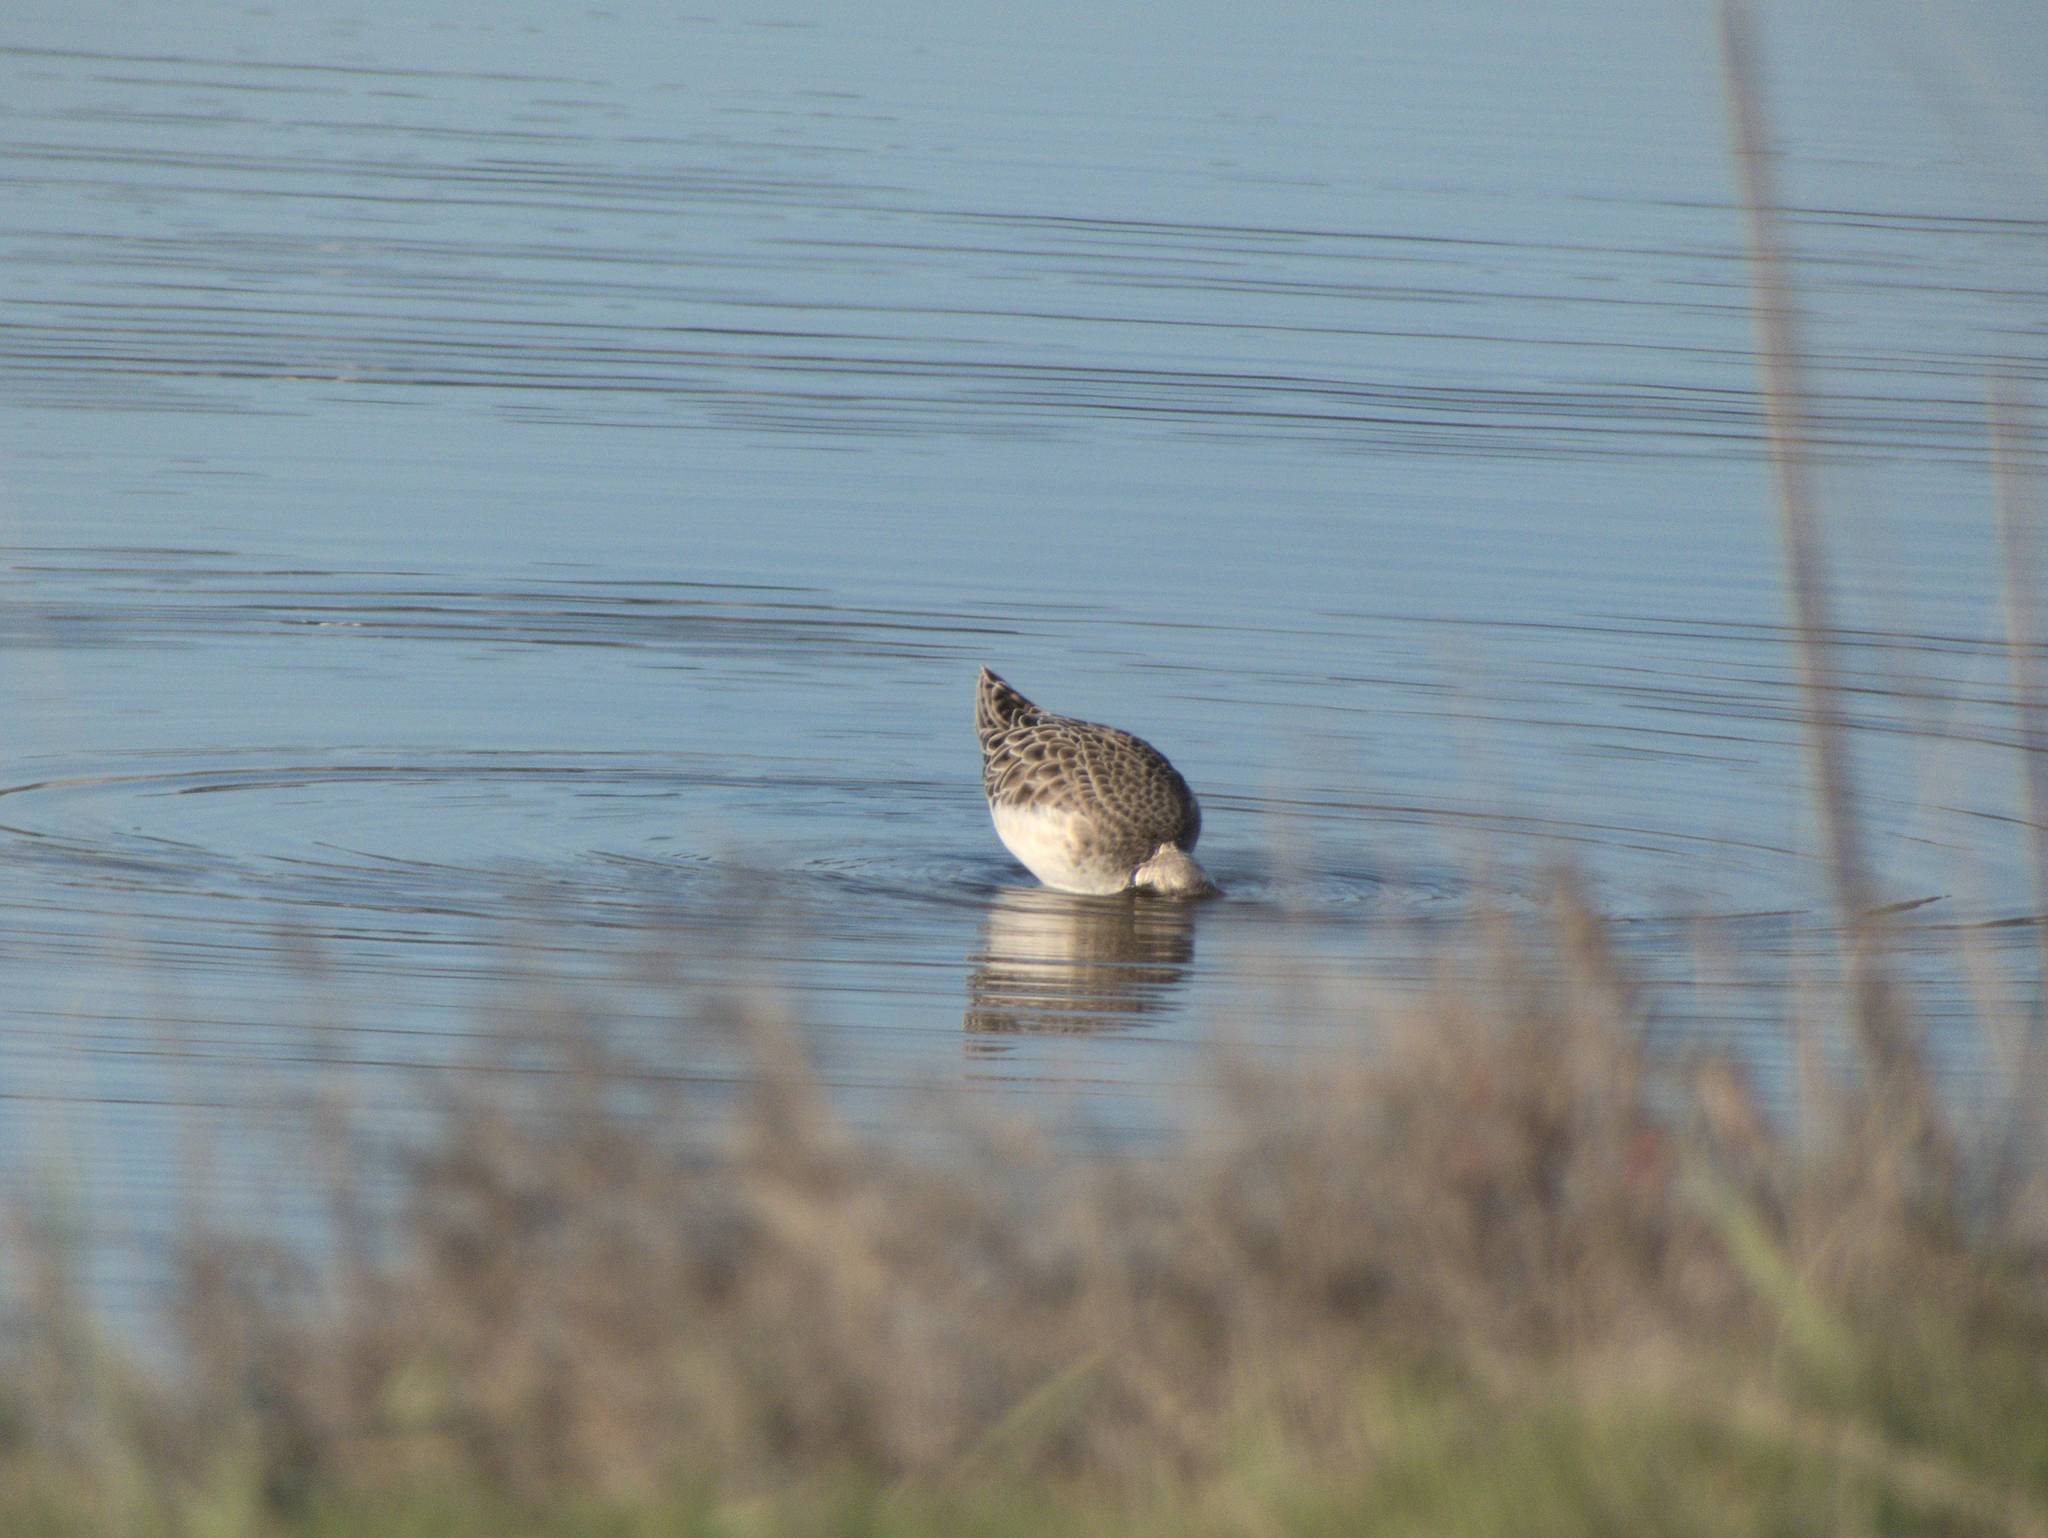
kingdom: Animalia
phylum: Chordata
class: Aves
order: Charadriiformes
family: Scolopacidae
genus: Calidris
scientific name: Calidris pugnax
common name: Ruff
